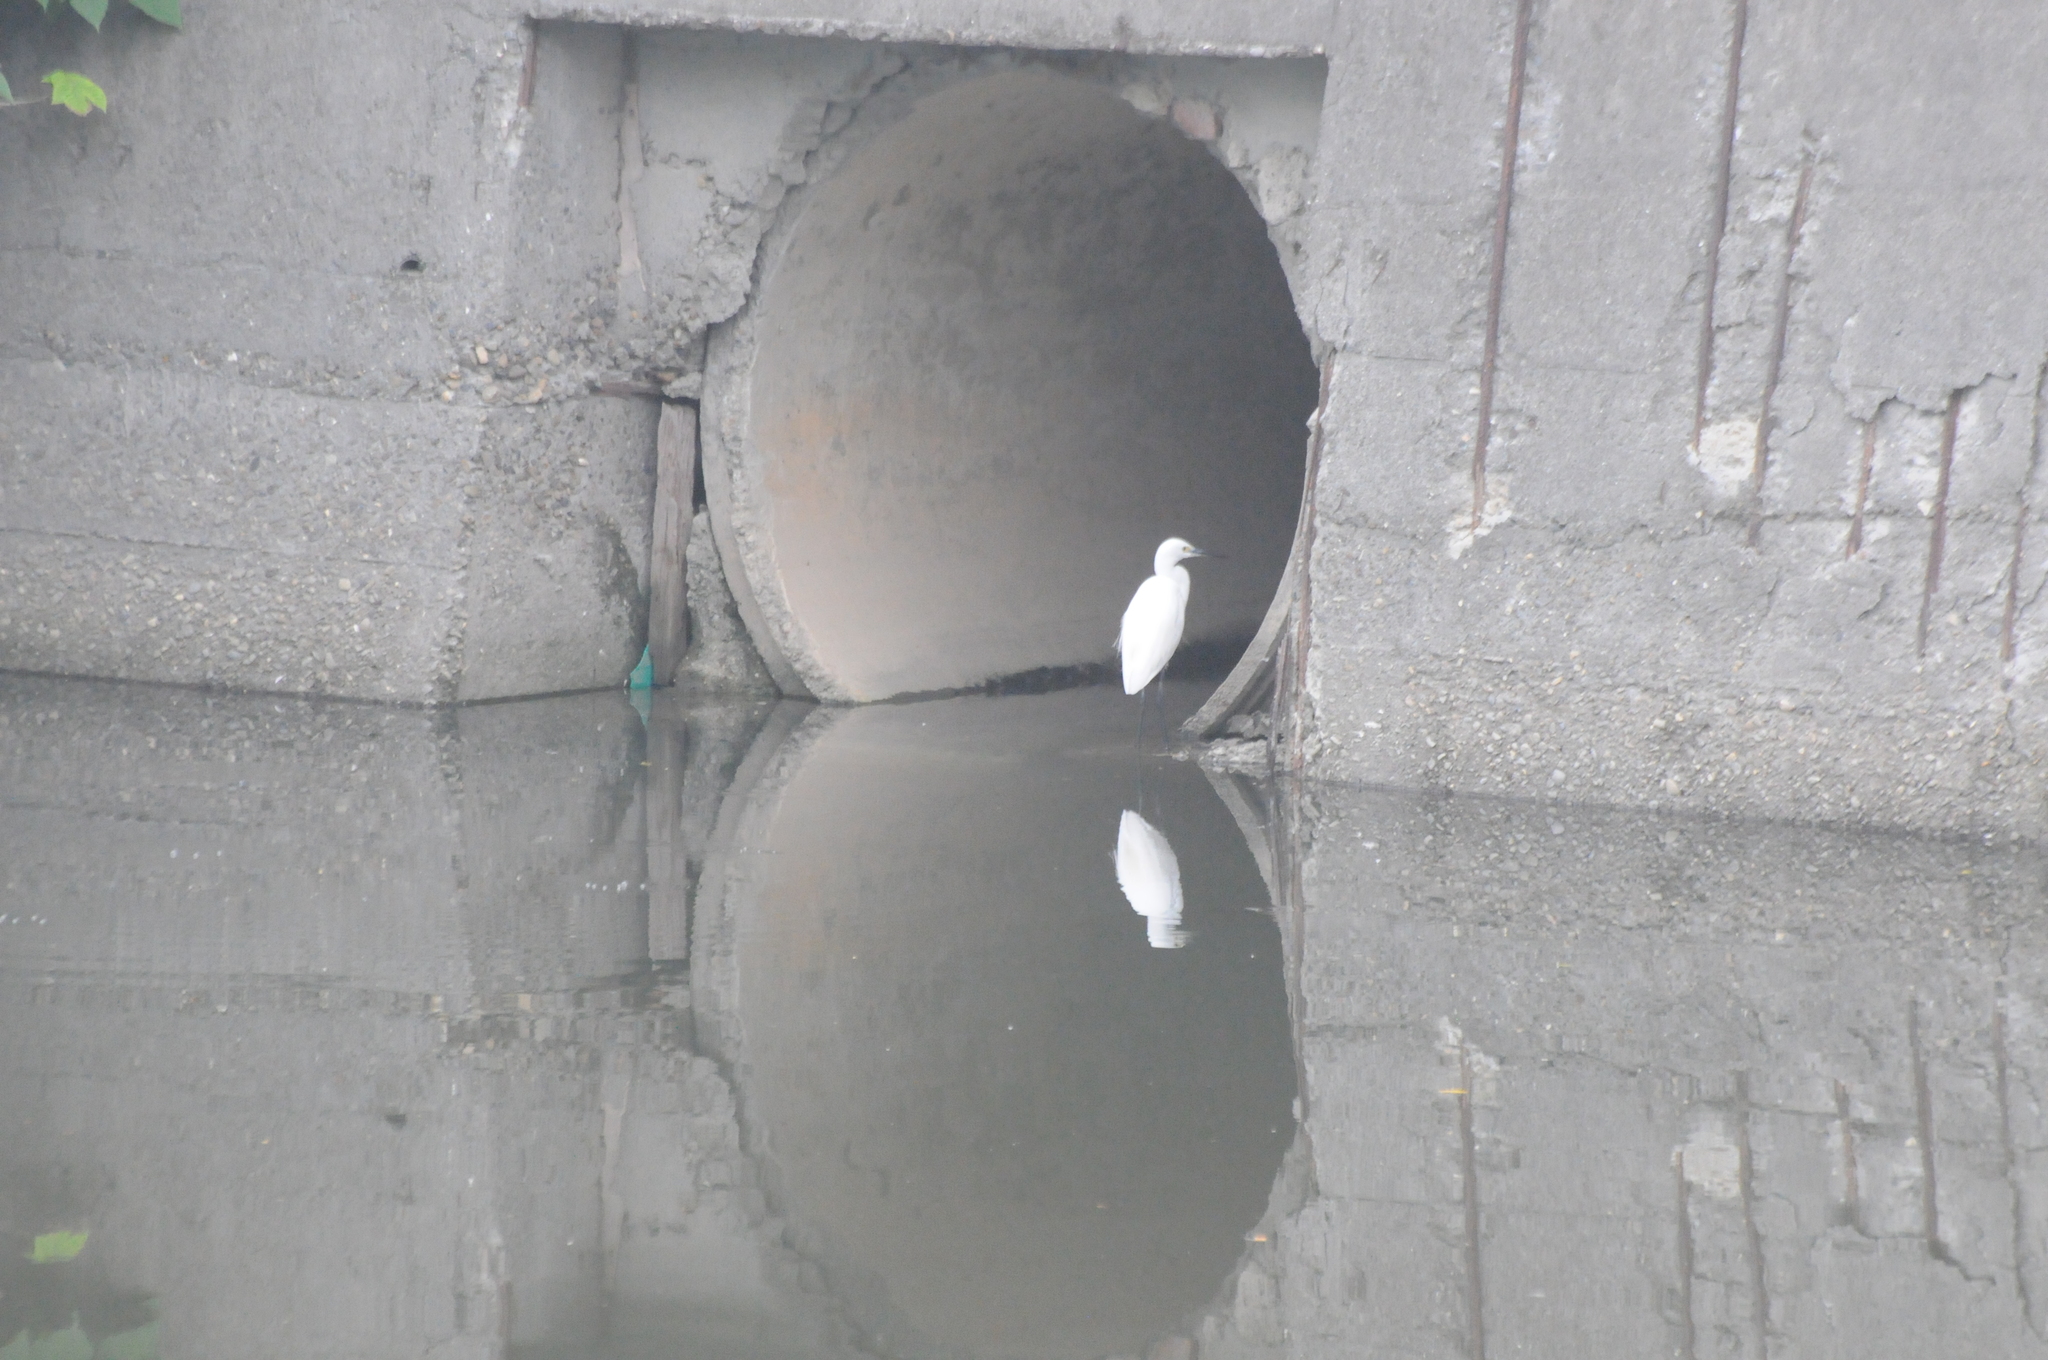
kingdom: Animalia
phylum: Chordata
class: Aves
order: Pelecaniformes
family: Ardeidae
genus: Egretta
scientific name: Egretta garzetta
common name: Little egret
